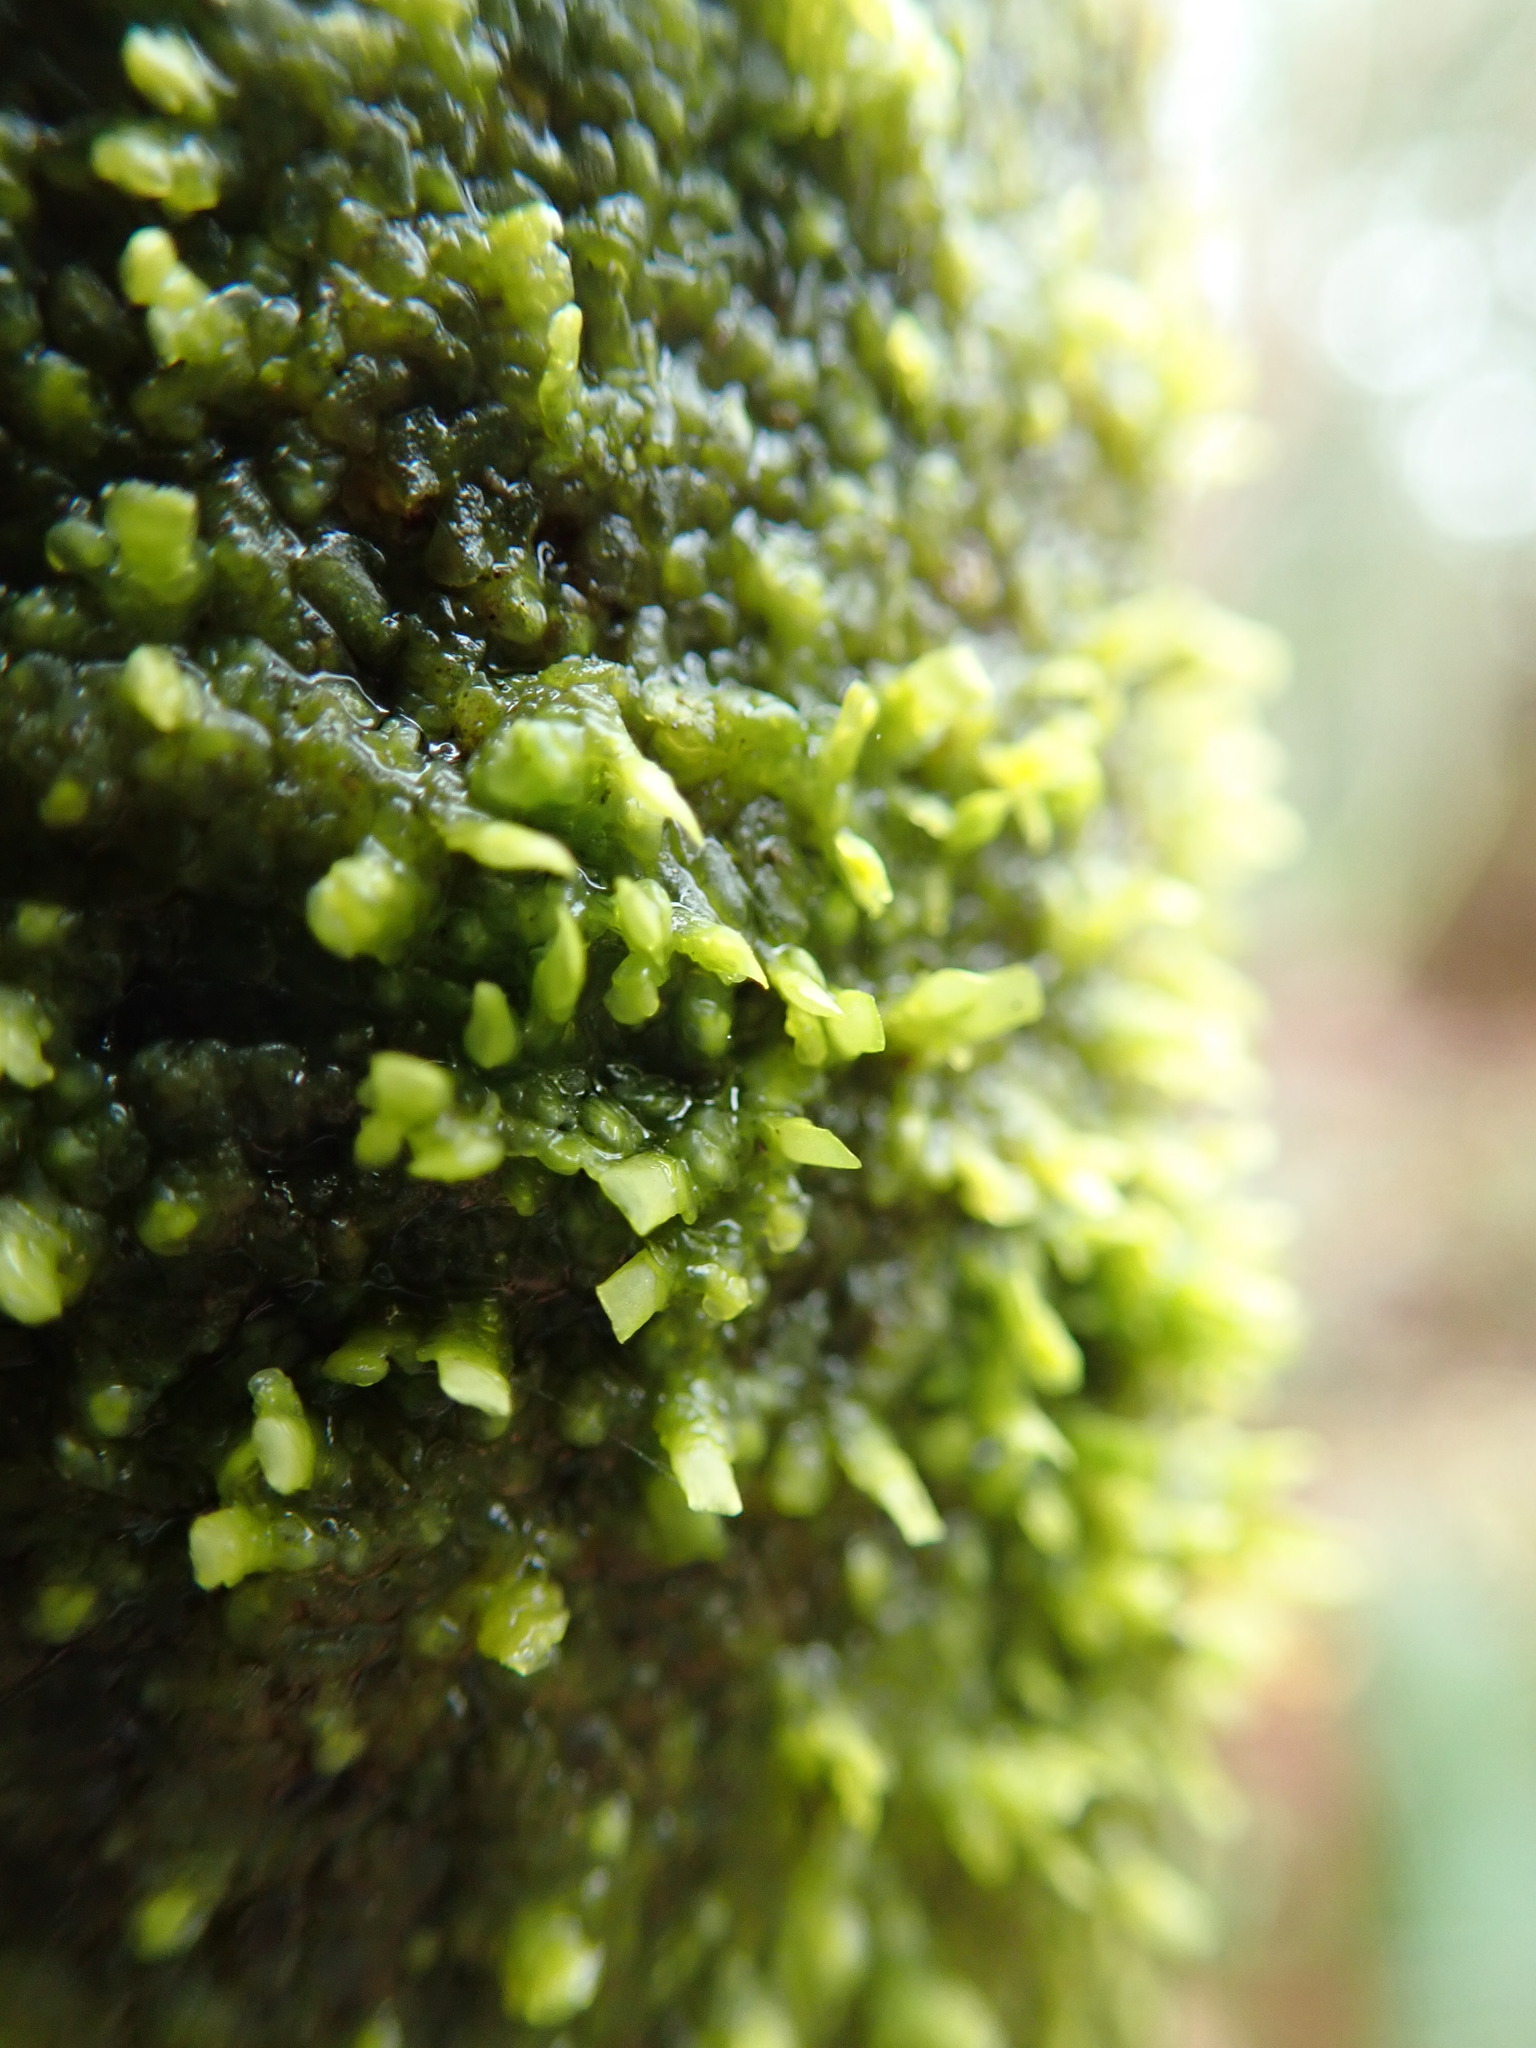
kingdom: Plantae
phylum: Marchantiophyta
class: Jungermanniopsida
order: Porellales
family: Radulaceae
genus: Radula
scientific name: Radula complanata
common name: Flat-leaved scalewort
